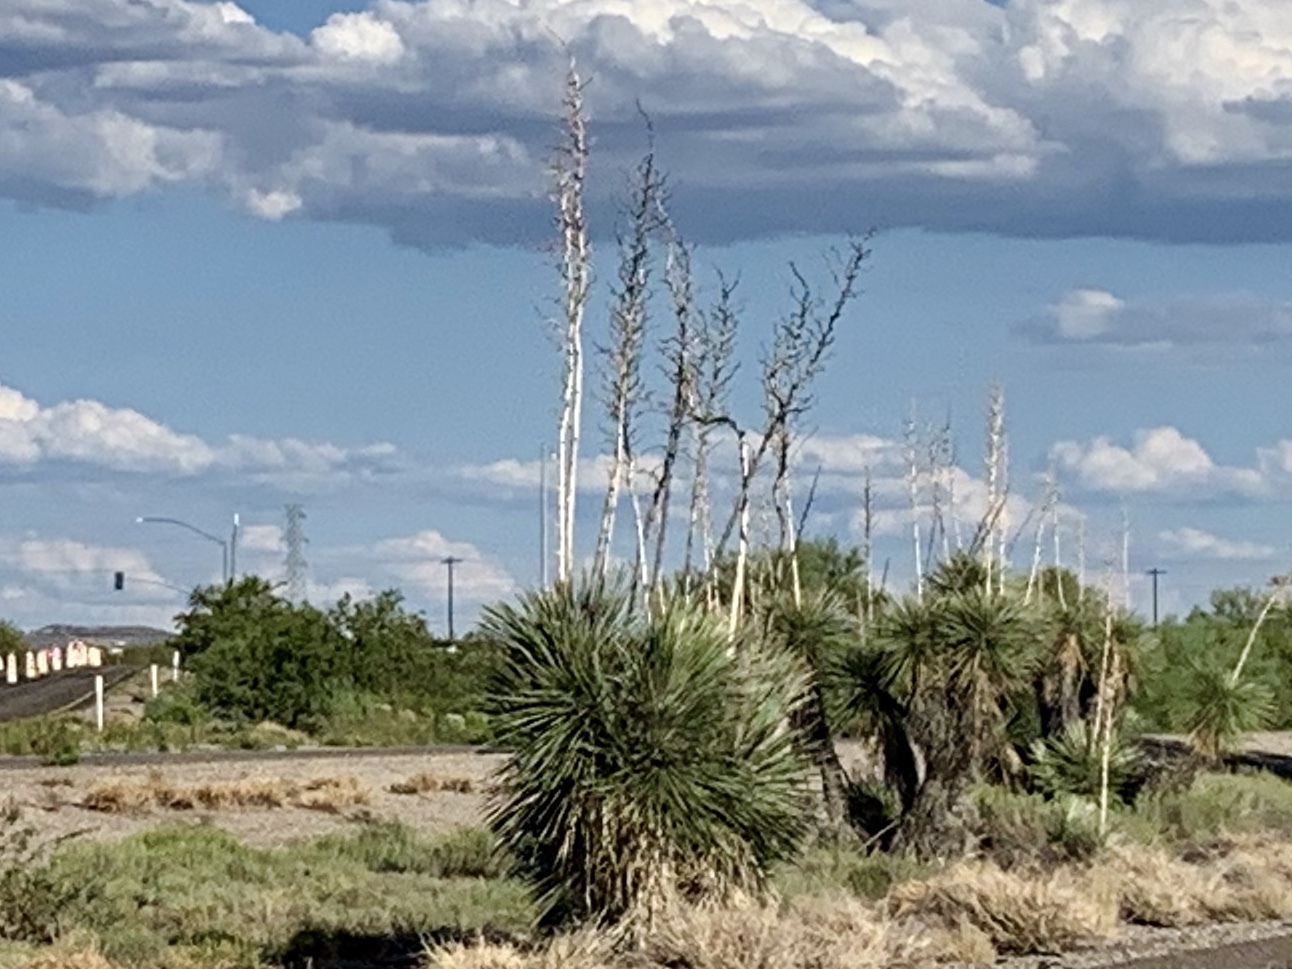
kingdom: Plantae
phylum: Tracheophyta
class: Liliopsida
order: Asparagales
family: Asparagaceae
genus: Yucca
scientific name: Yucca elata
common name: Palmella
